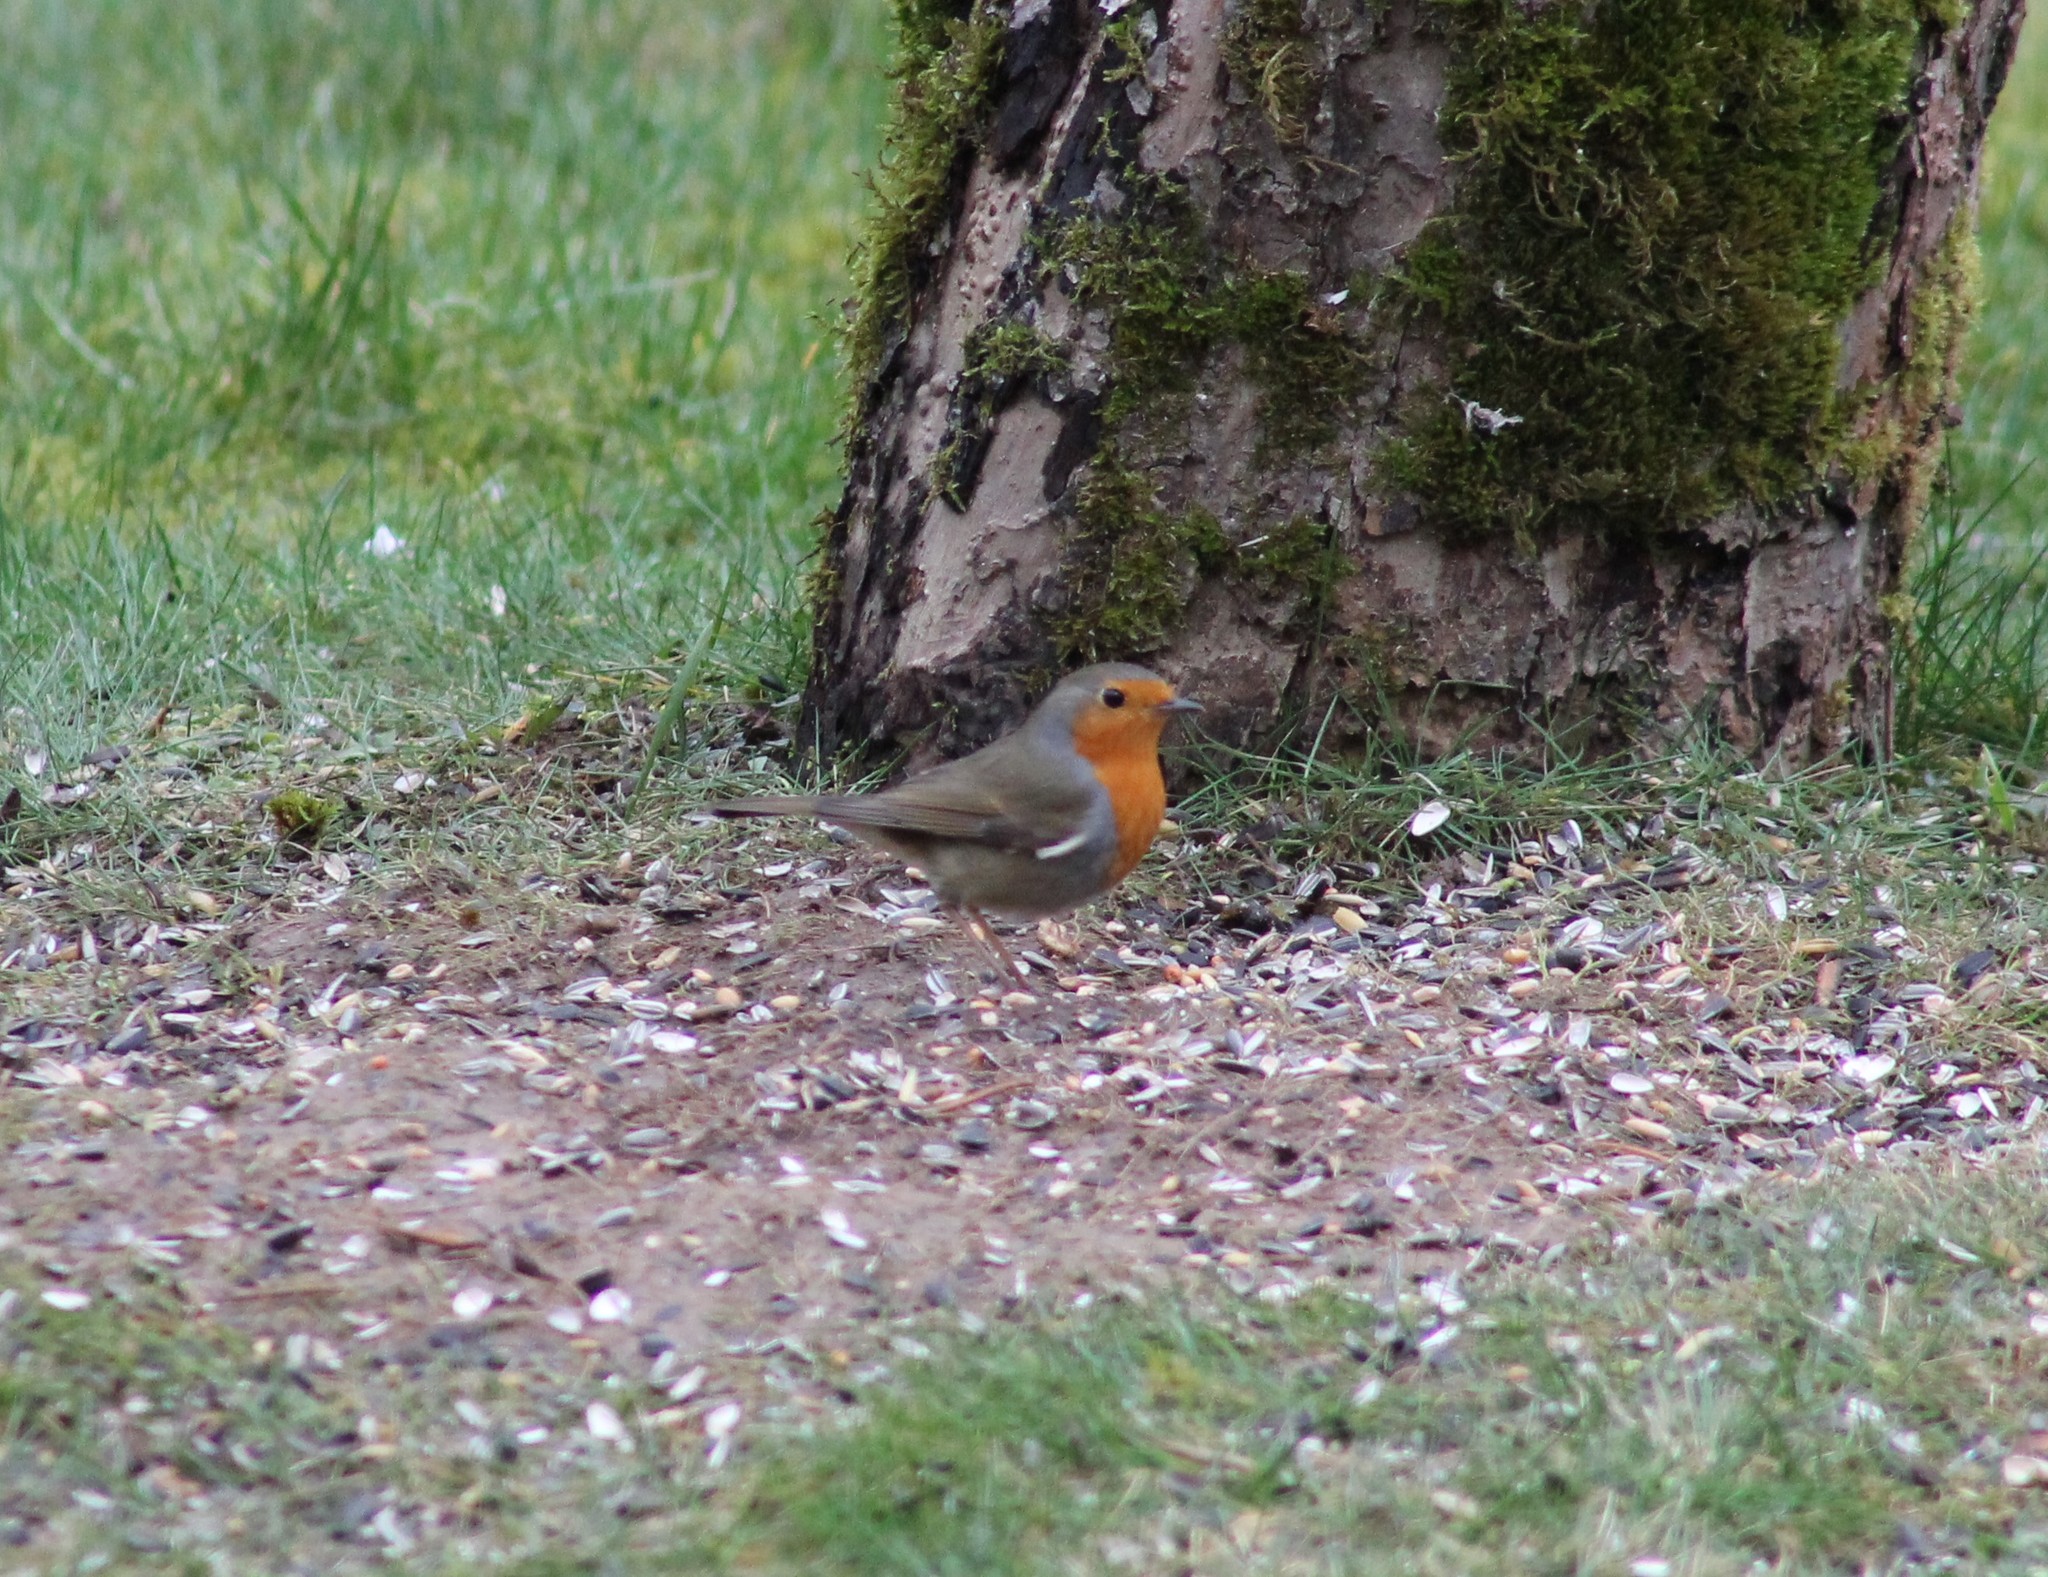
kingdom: Animalia
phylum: Chordata
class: Aves
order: Passeriformes
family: Muscicapidae
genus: Erithacus
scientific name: Erithacus rubecula
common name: European robin
